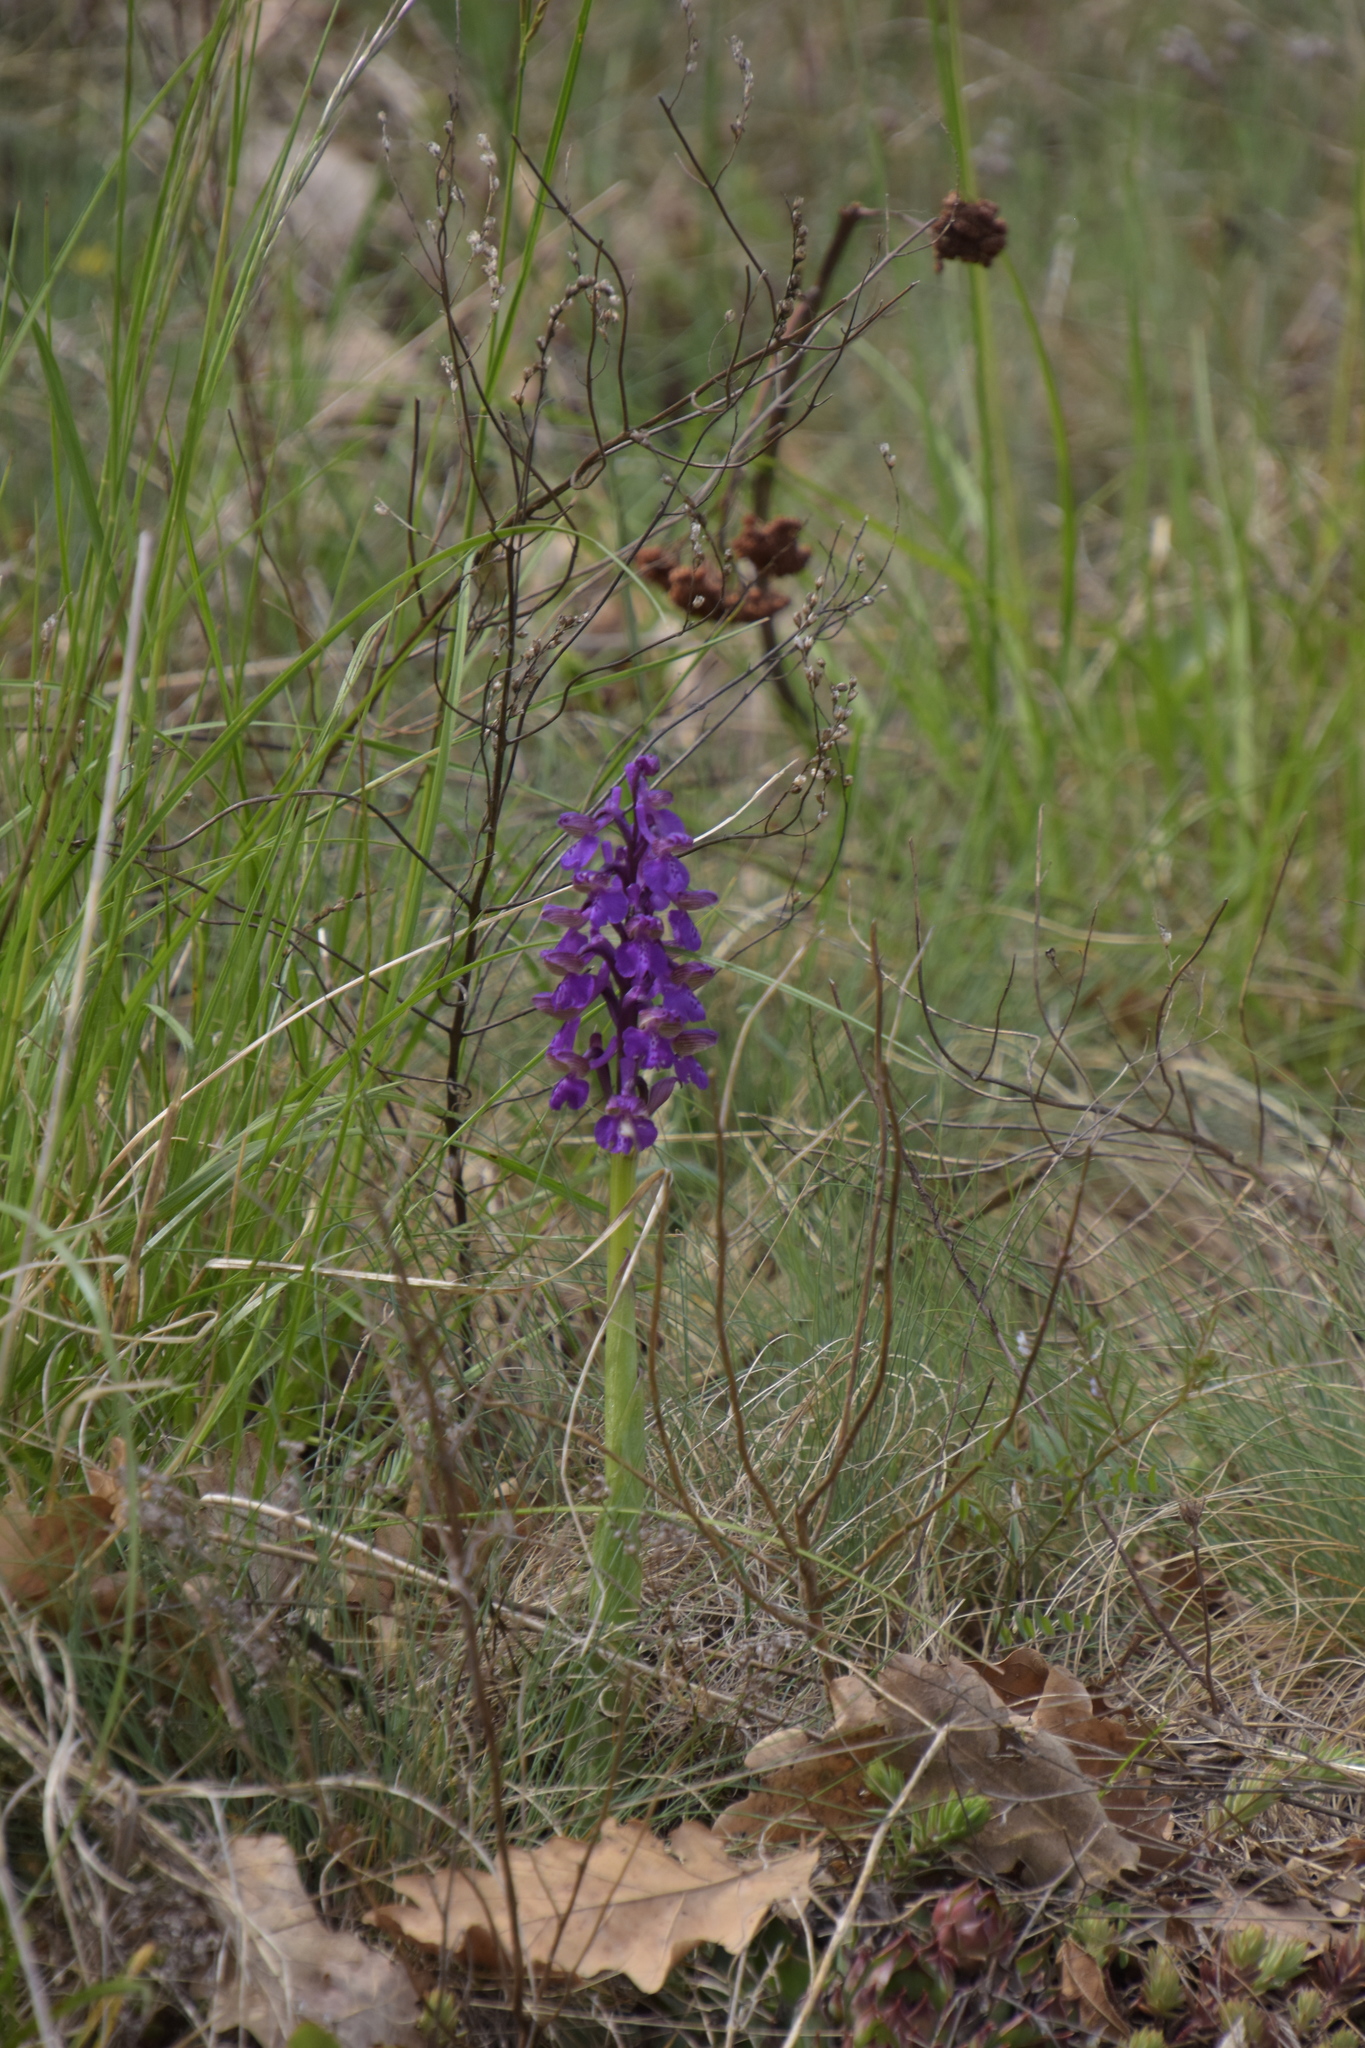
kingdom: Plantae
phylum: Tracheophyta
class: Liliopsida
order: Asparagales
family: Orchidaceae
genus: Anacamptis
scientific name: Anacamptis morio
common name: Green-winged orchid
